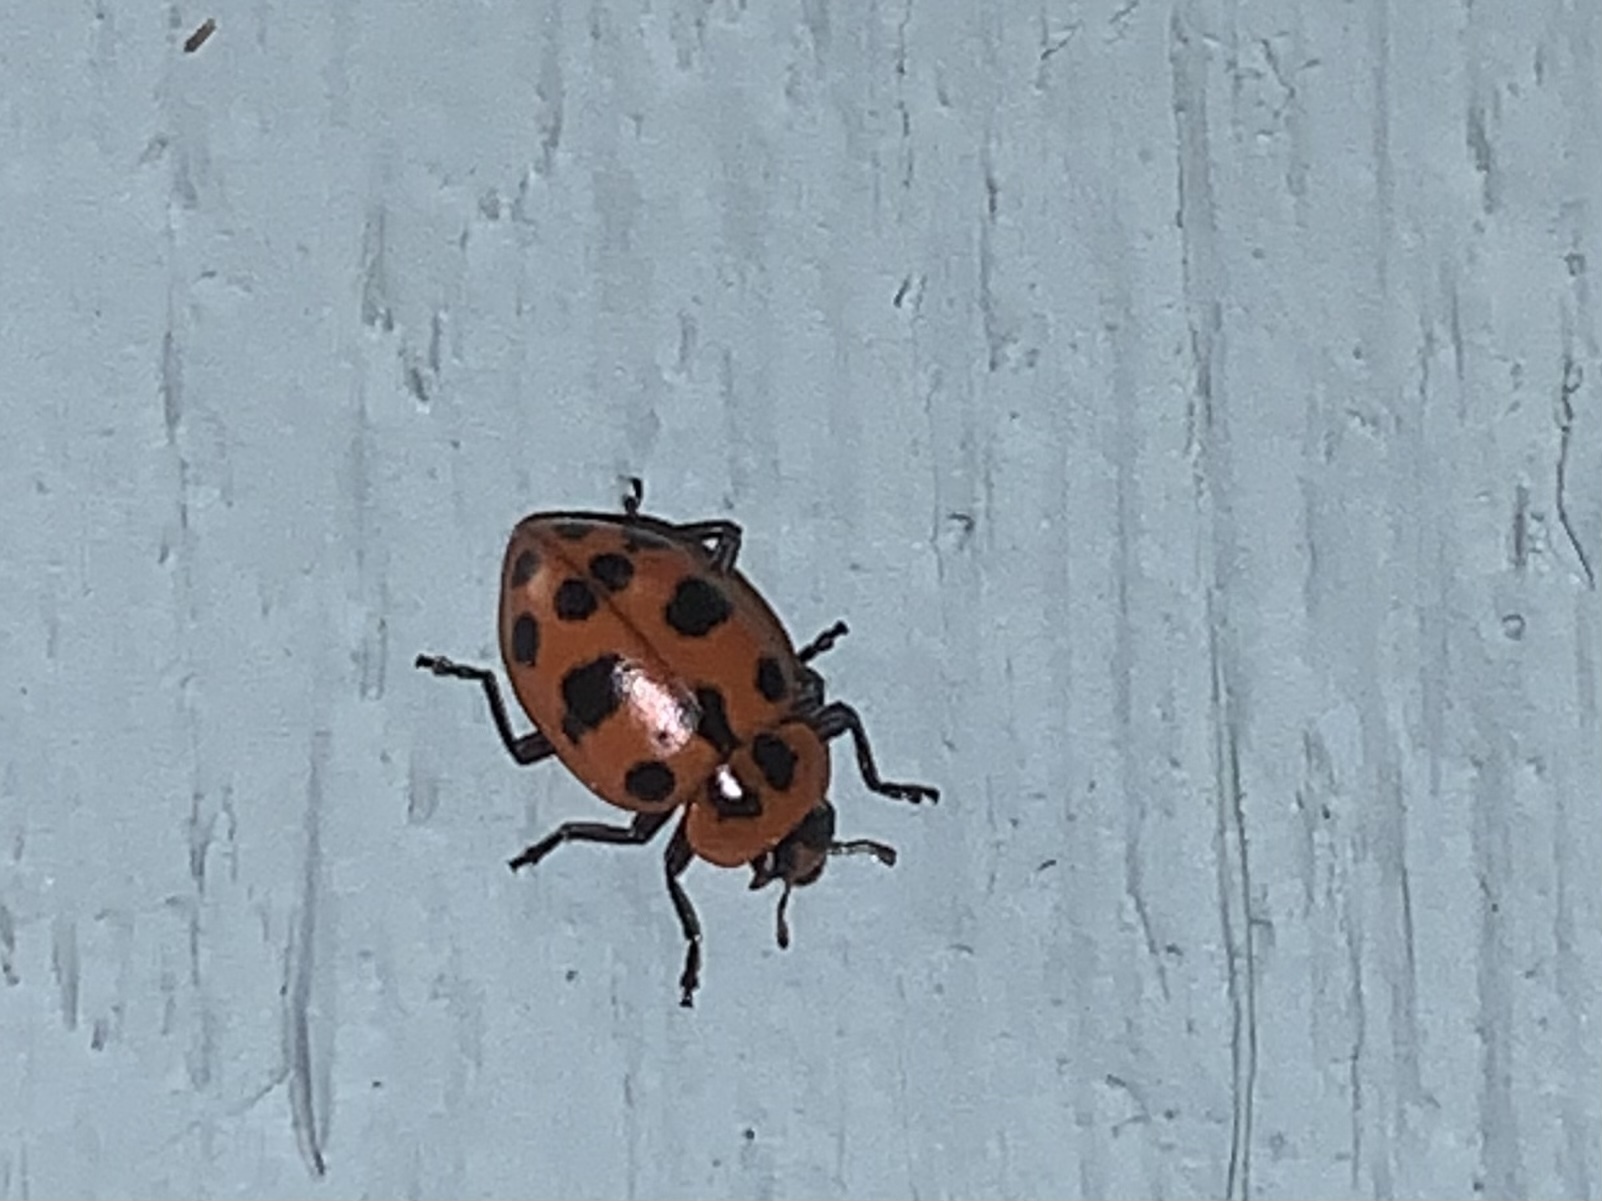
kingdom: Animalia
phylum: Arthropoda
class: Insecta
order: Coleoptera
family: Coccinellidae
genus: Coleomegilla
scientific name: Coleomegilla maculata
